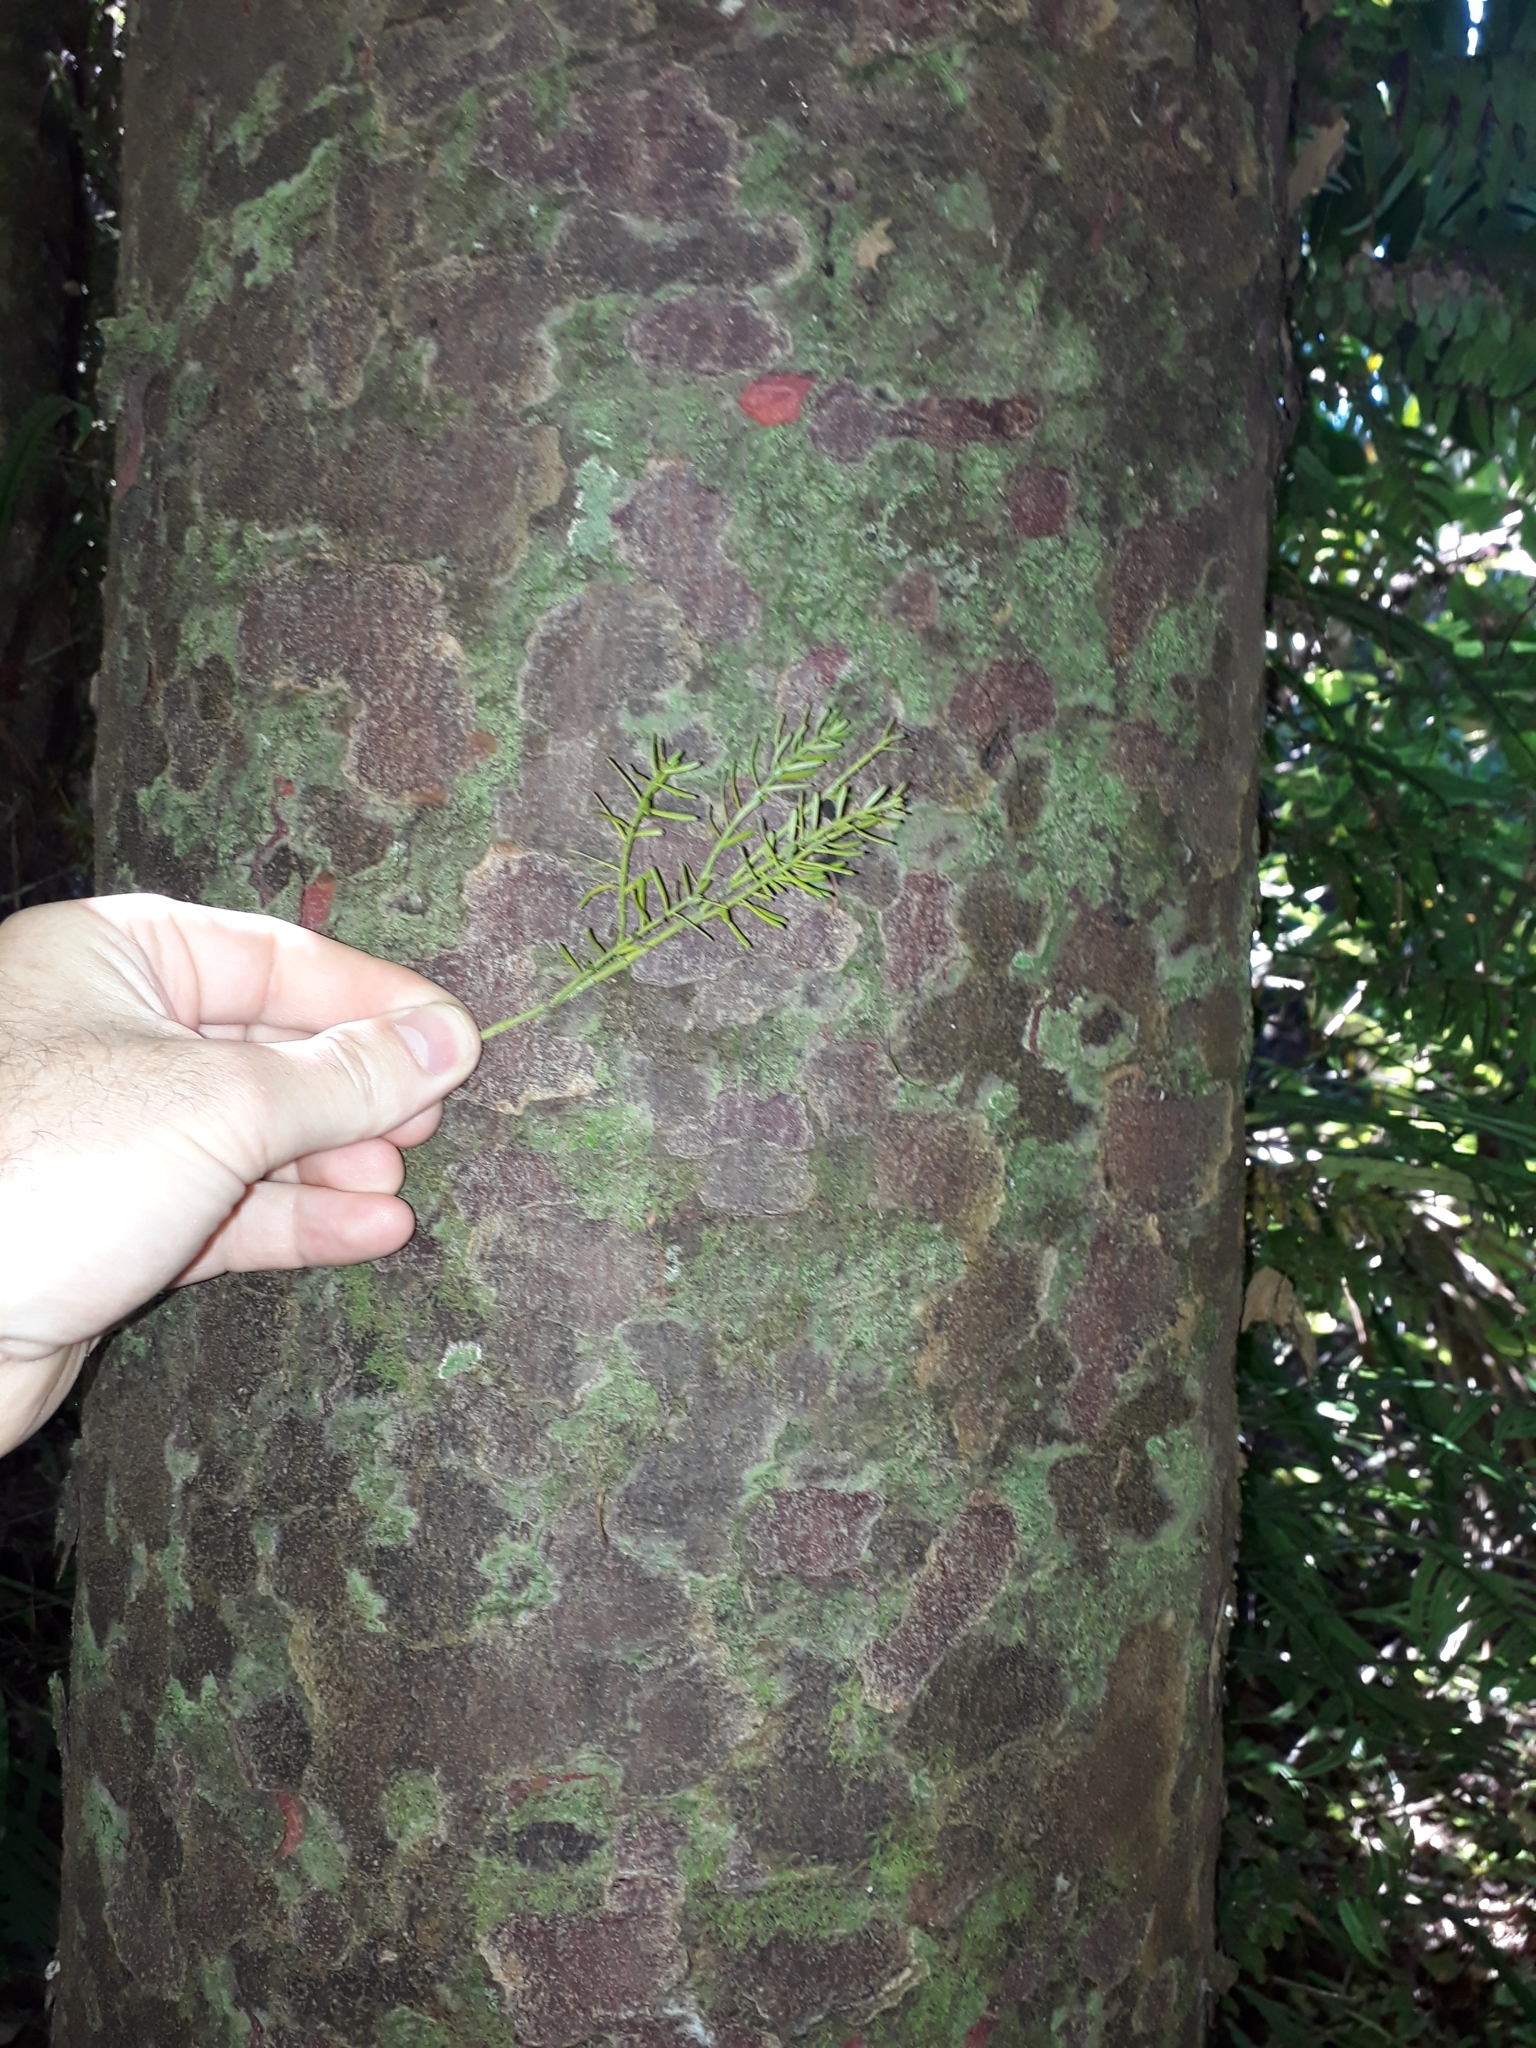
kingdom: Plantae
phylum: Tracheophyta
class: Pinopsida
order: Pinales
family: Podocarpaceae
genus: Prumnopitys
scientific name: Prumnopitys taxifolia
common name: Matai
